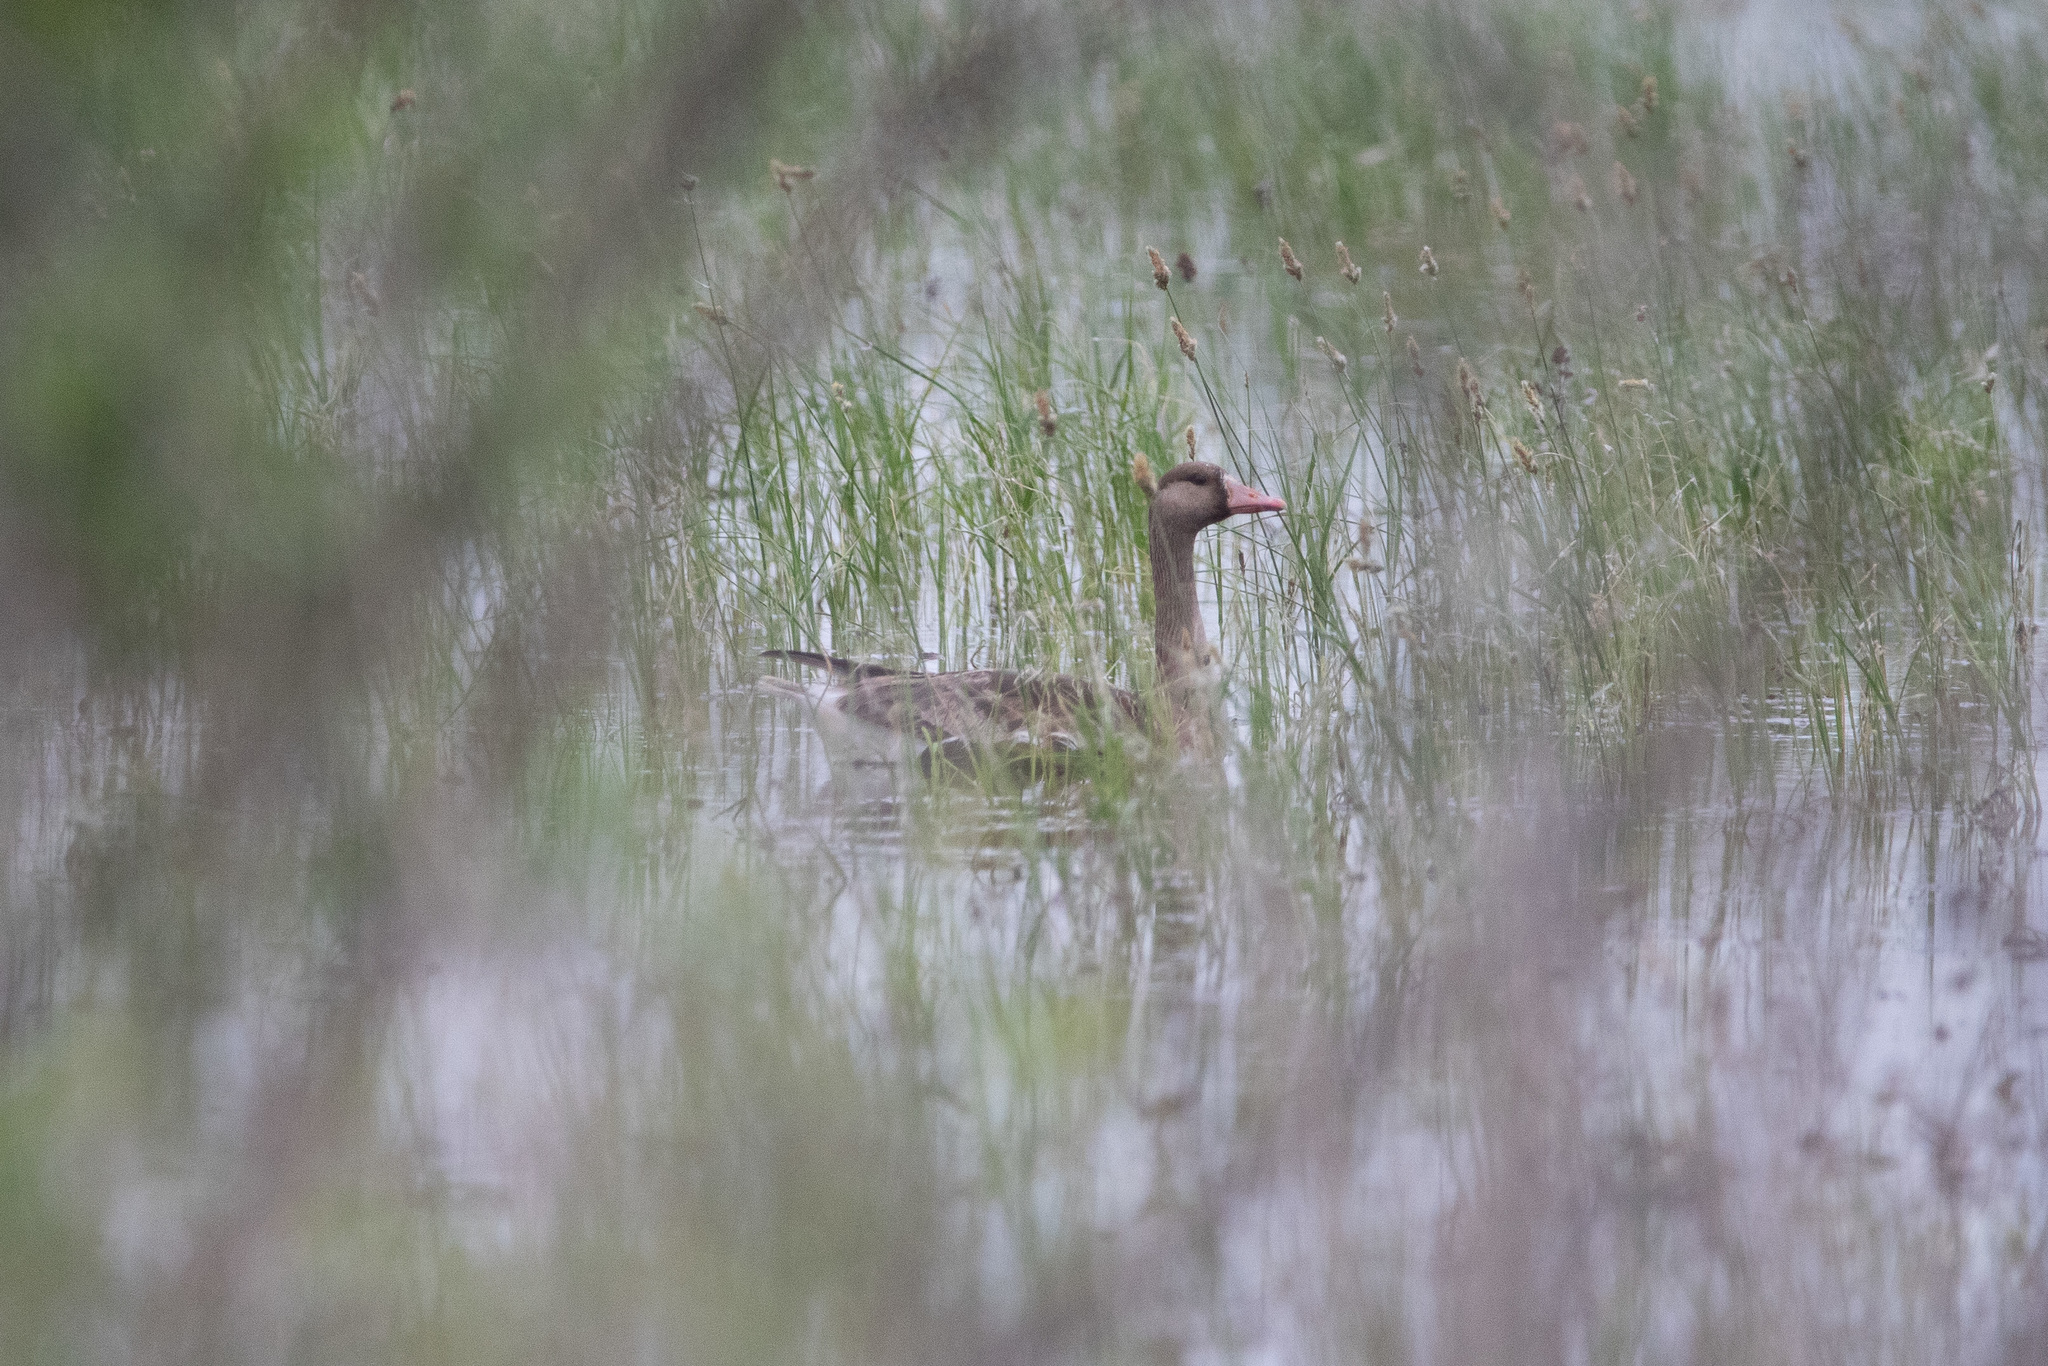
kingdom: Animalia
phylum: Chordata
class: Aves
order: Anseriformes
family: Anatidae
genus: Anser
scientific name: Anser albifrons
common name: Greater white-fronted goose
